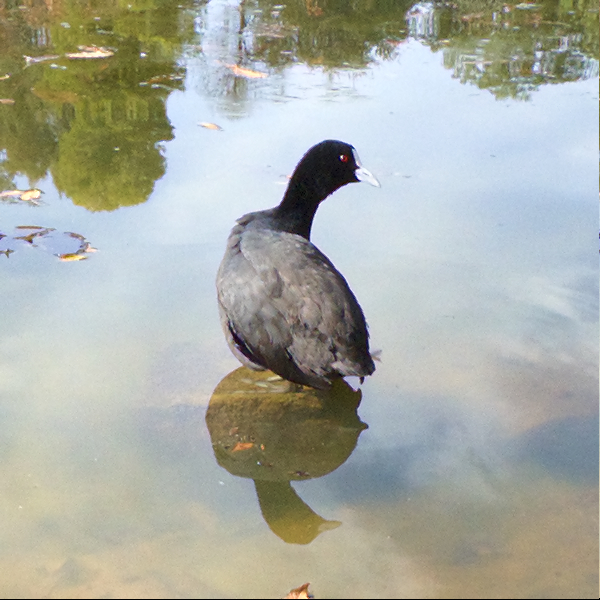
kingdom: Animalia
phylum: Chordata
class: Aves
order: Gruiformes
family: Rallidae
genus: Fulica
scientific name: Fulica atra
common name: Eurasian coot
